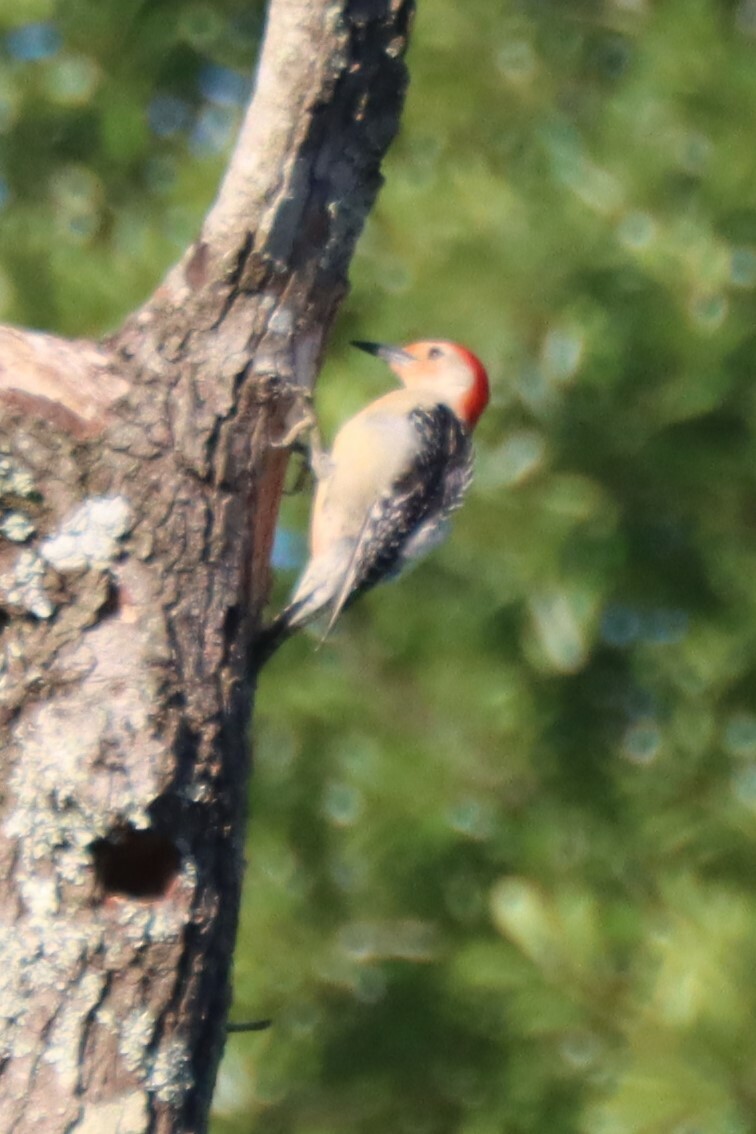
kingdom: Animalia
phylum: Chordata
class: Aves
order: Piciformes
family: Picidae
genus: Melanerpes
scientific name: Melanerpes carolinus
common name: Red-bellied woodpecker
